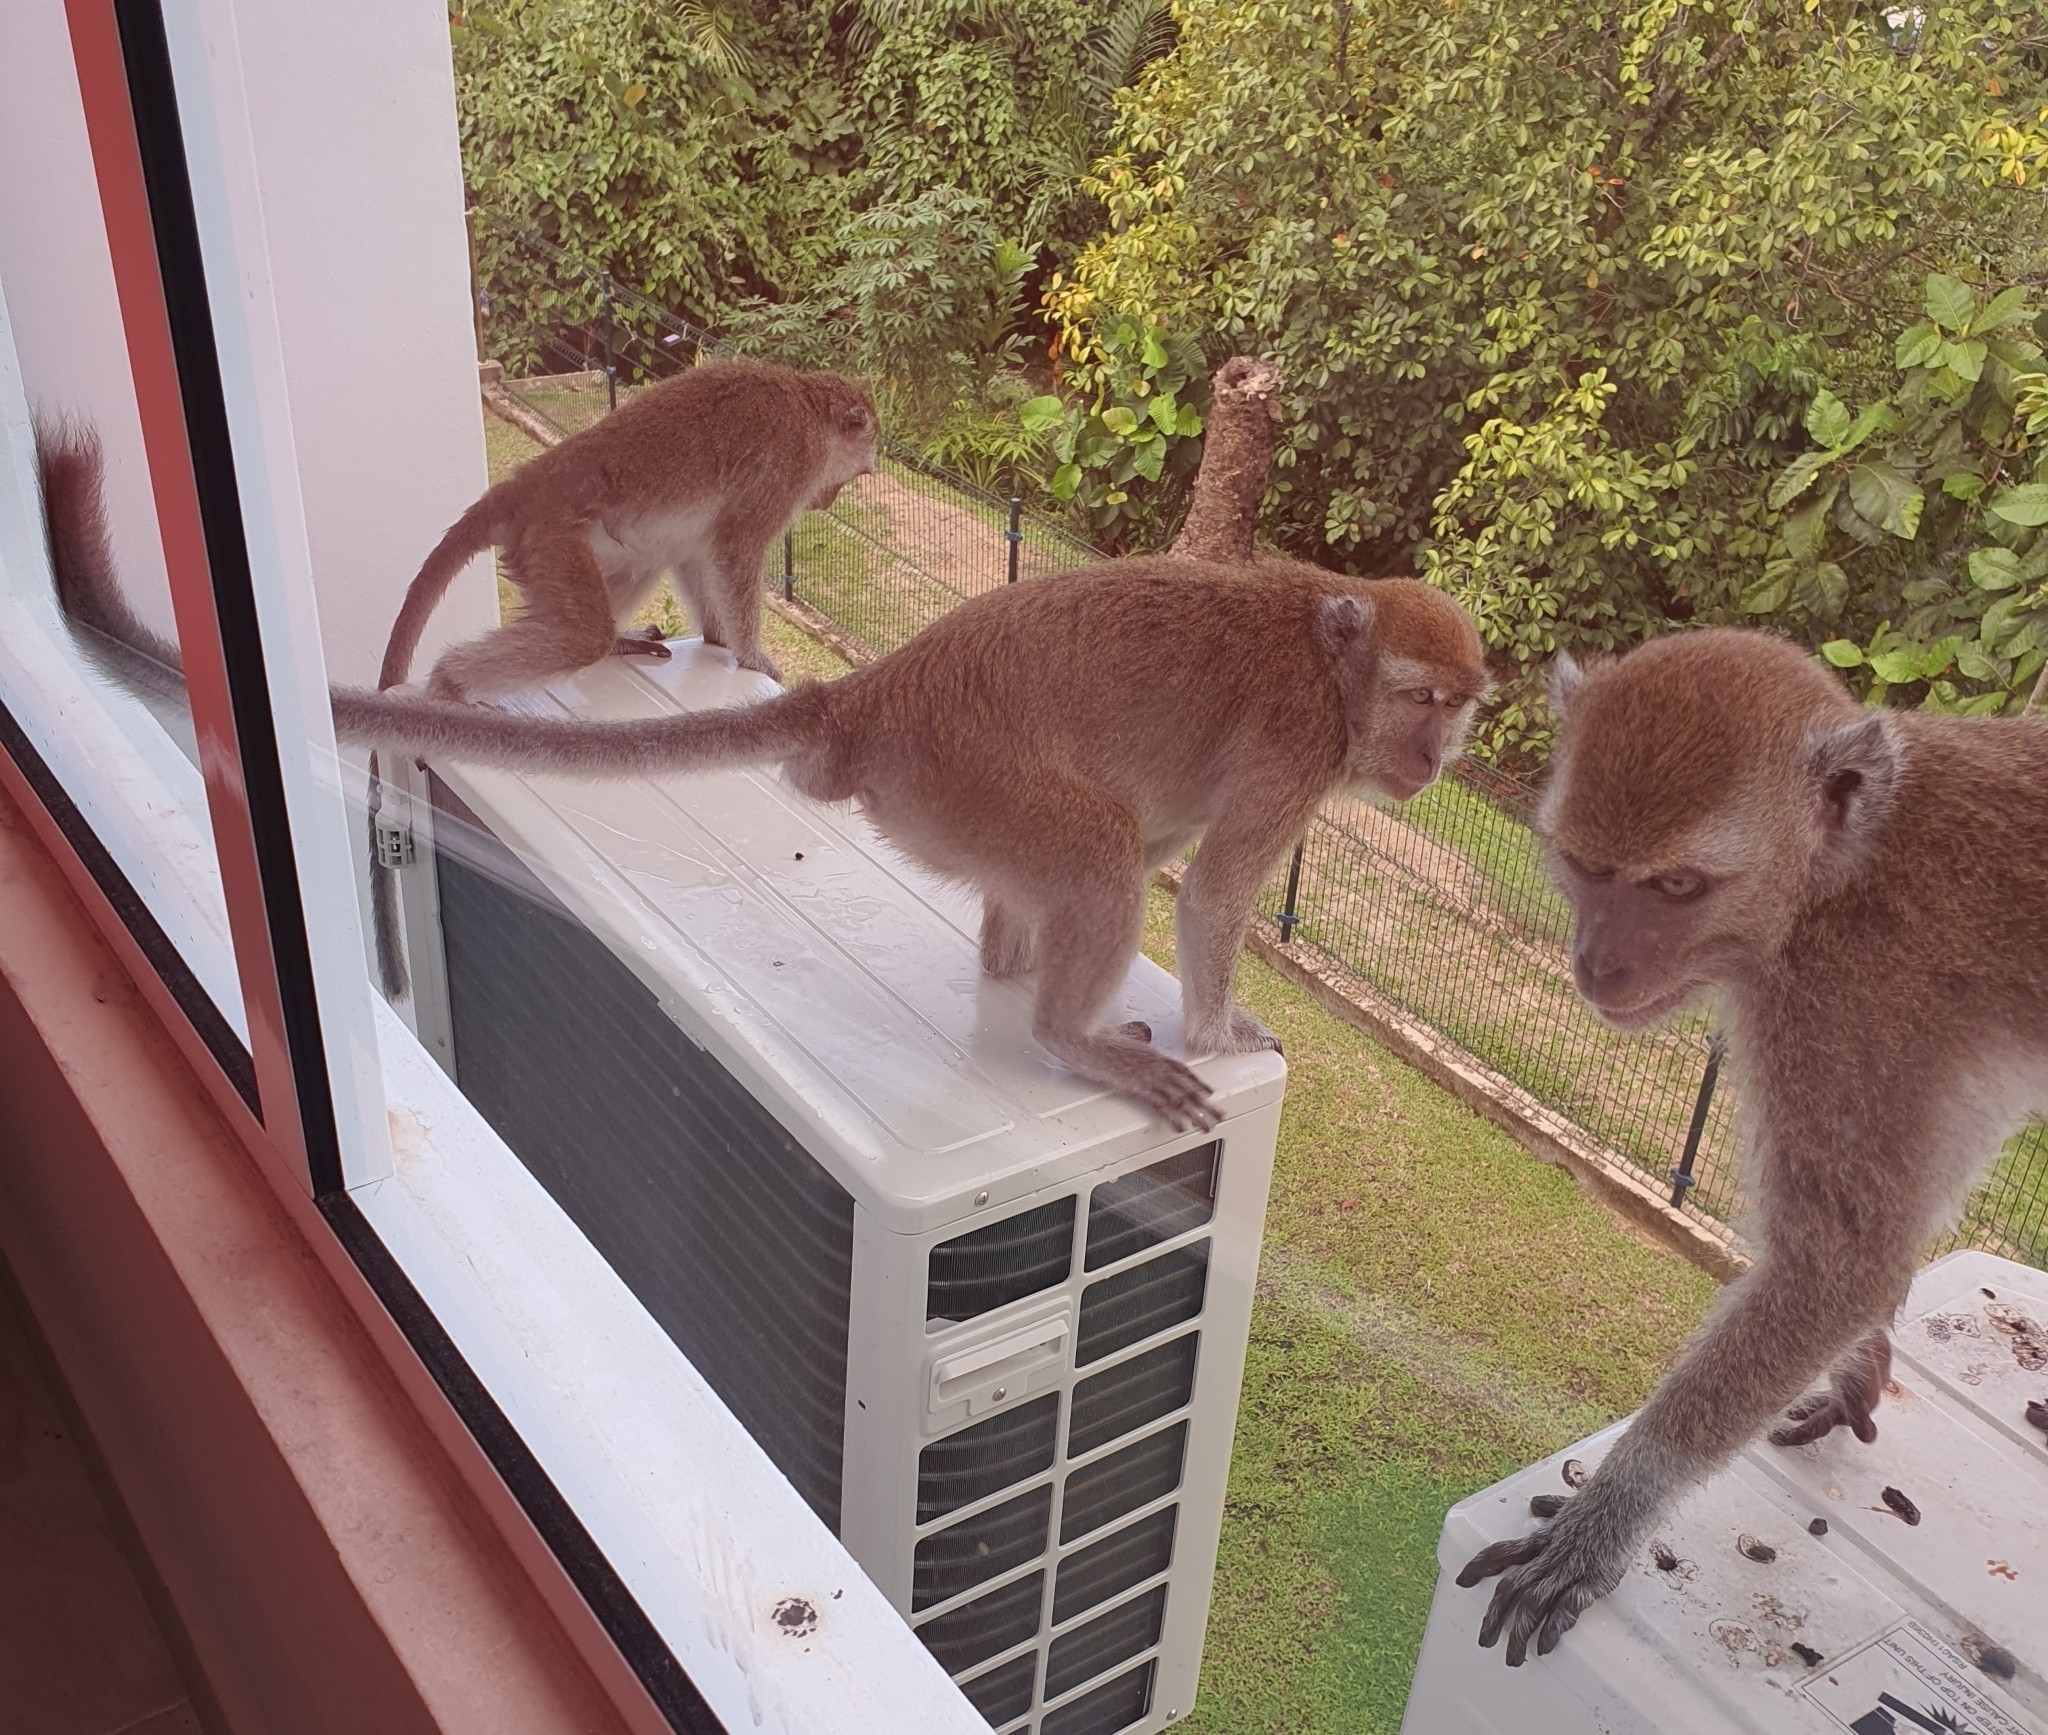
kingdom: Animalia
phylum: Chordata
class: Mammalia
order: Primates
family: Cercopithecidae
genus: Macaca
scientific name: Macaca fascicularis
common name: Crab-eating macaque
